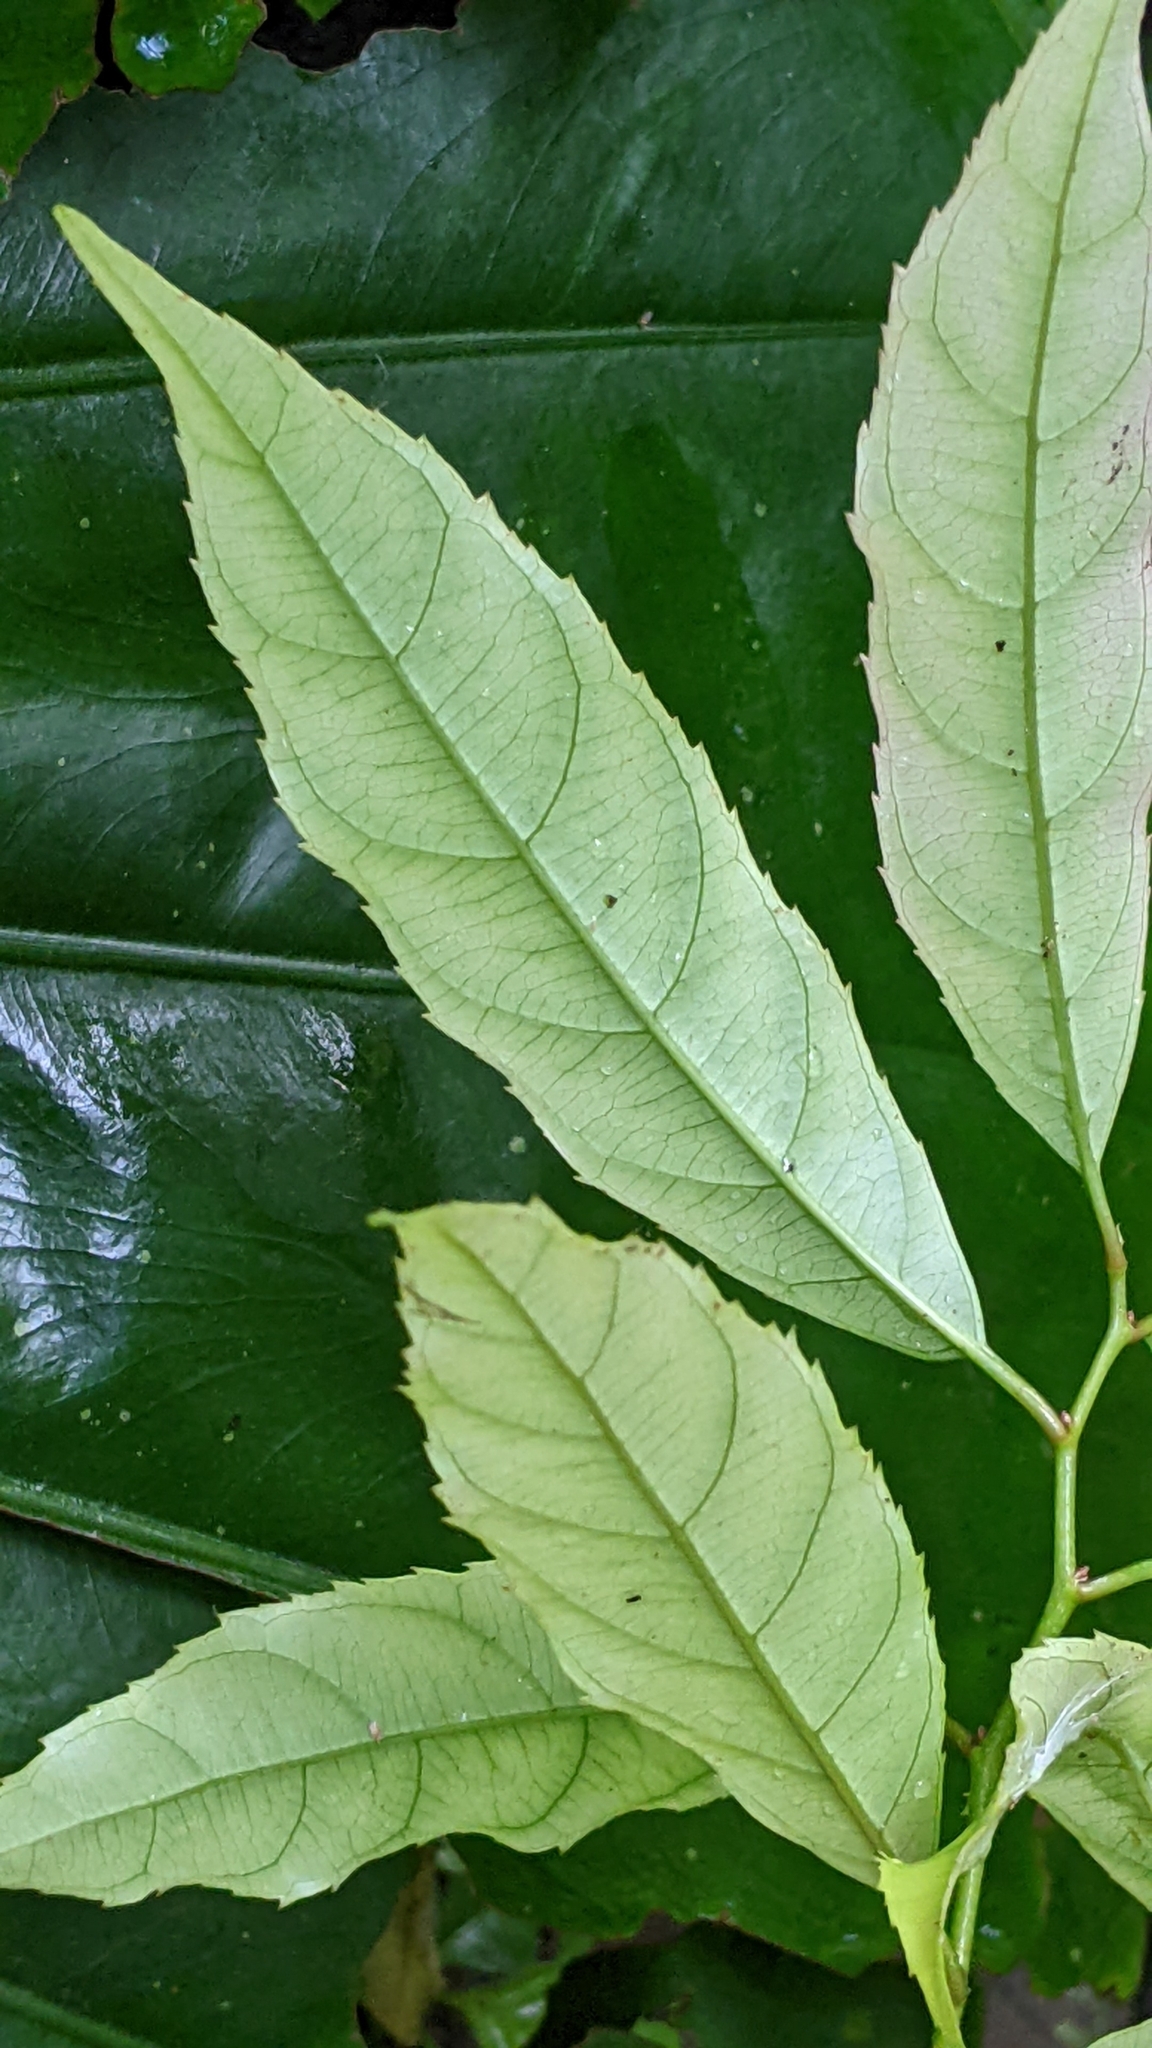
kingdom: Plantae
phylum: Tracheophyta
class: Magnoliopsida
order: Saxifragales
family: Iteaceae
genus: Itea
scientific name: Itea parviflora
